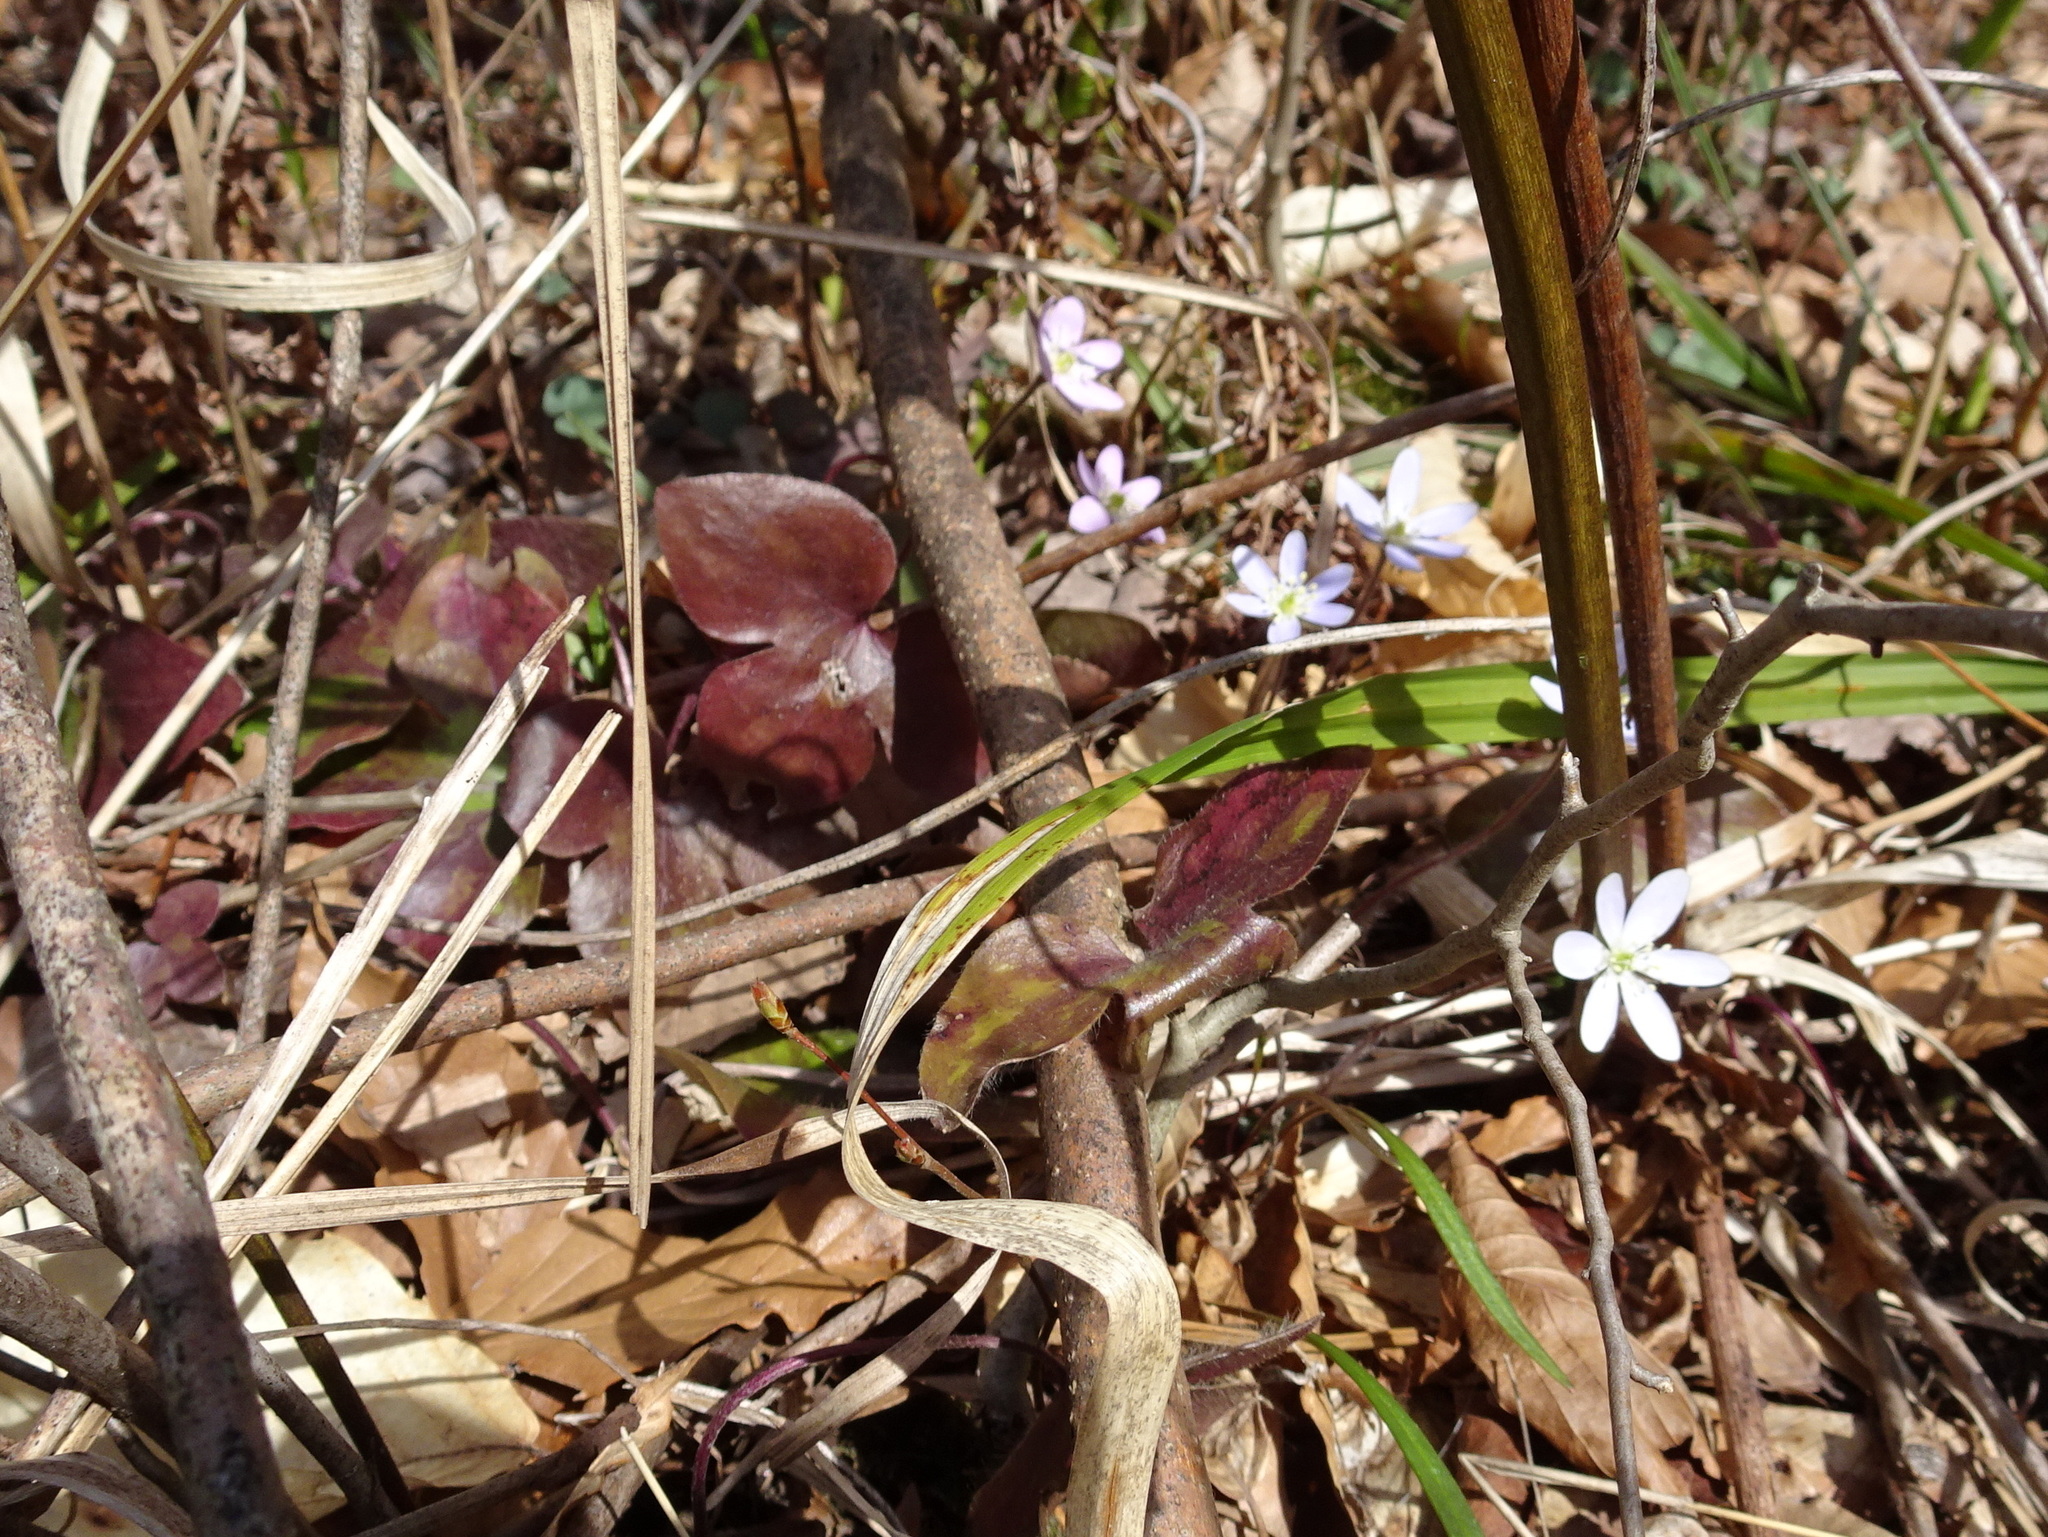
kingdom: Plantae
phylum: Tracheophyta
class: Magnoliopsida
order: Ranunculales
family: Ranunculaceae
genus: Hepatica
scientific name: Hepatica acutiloba
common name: Sharp-lobed hepatica
